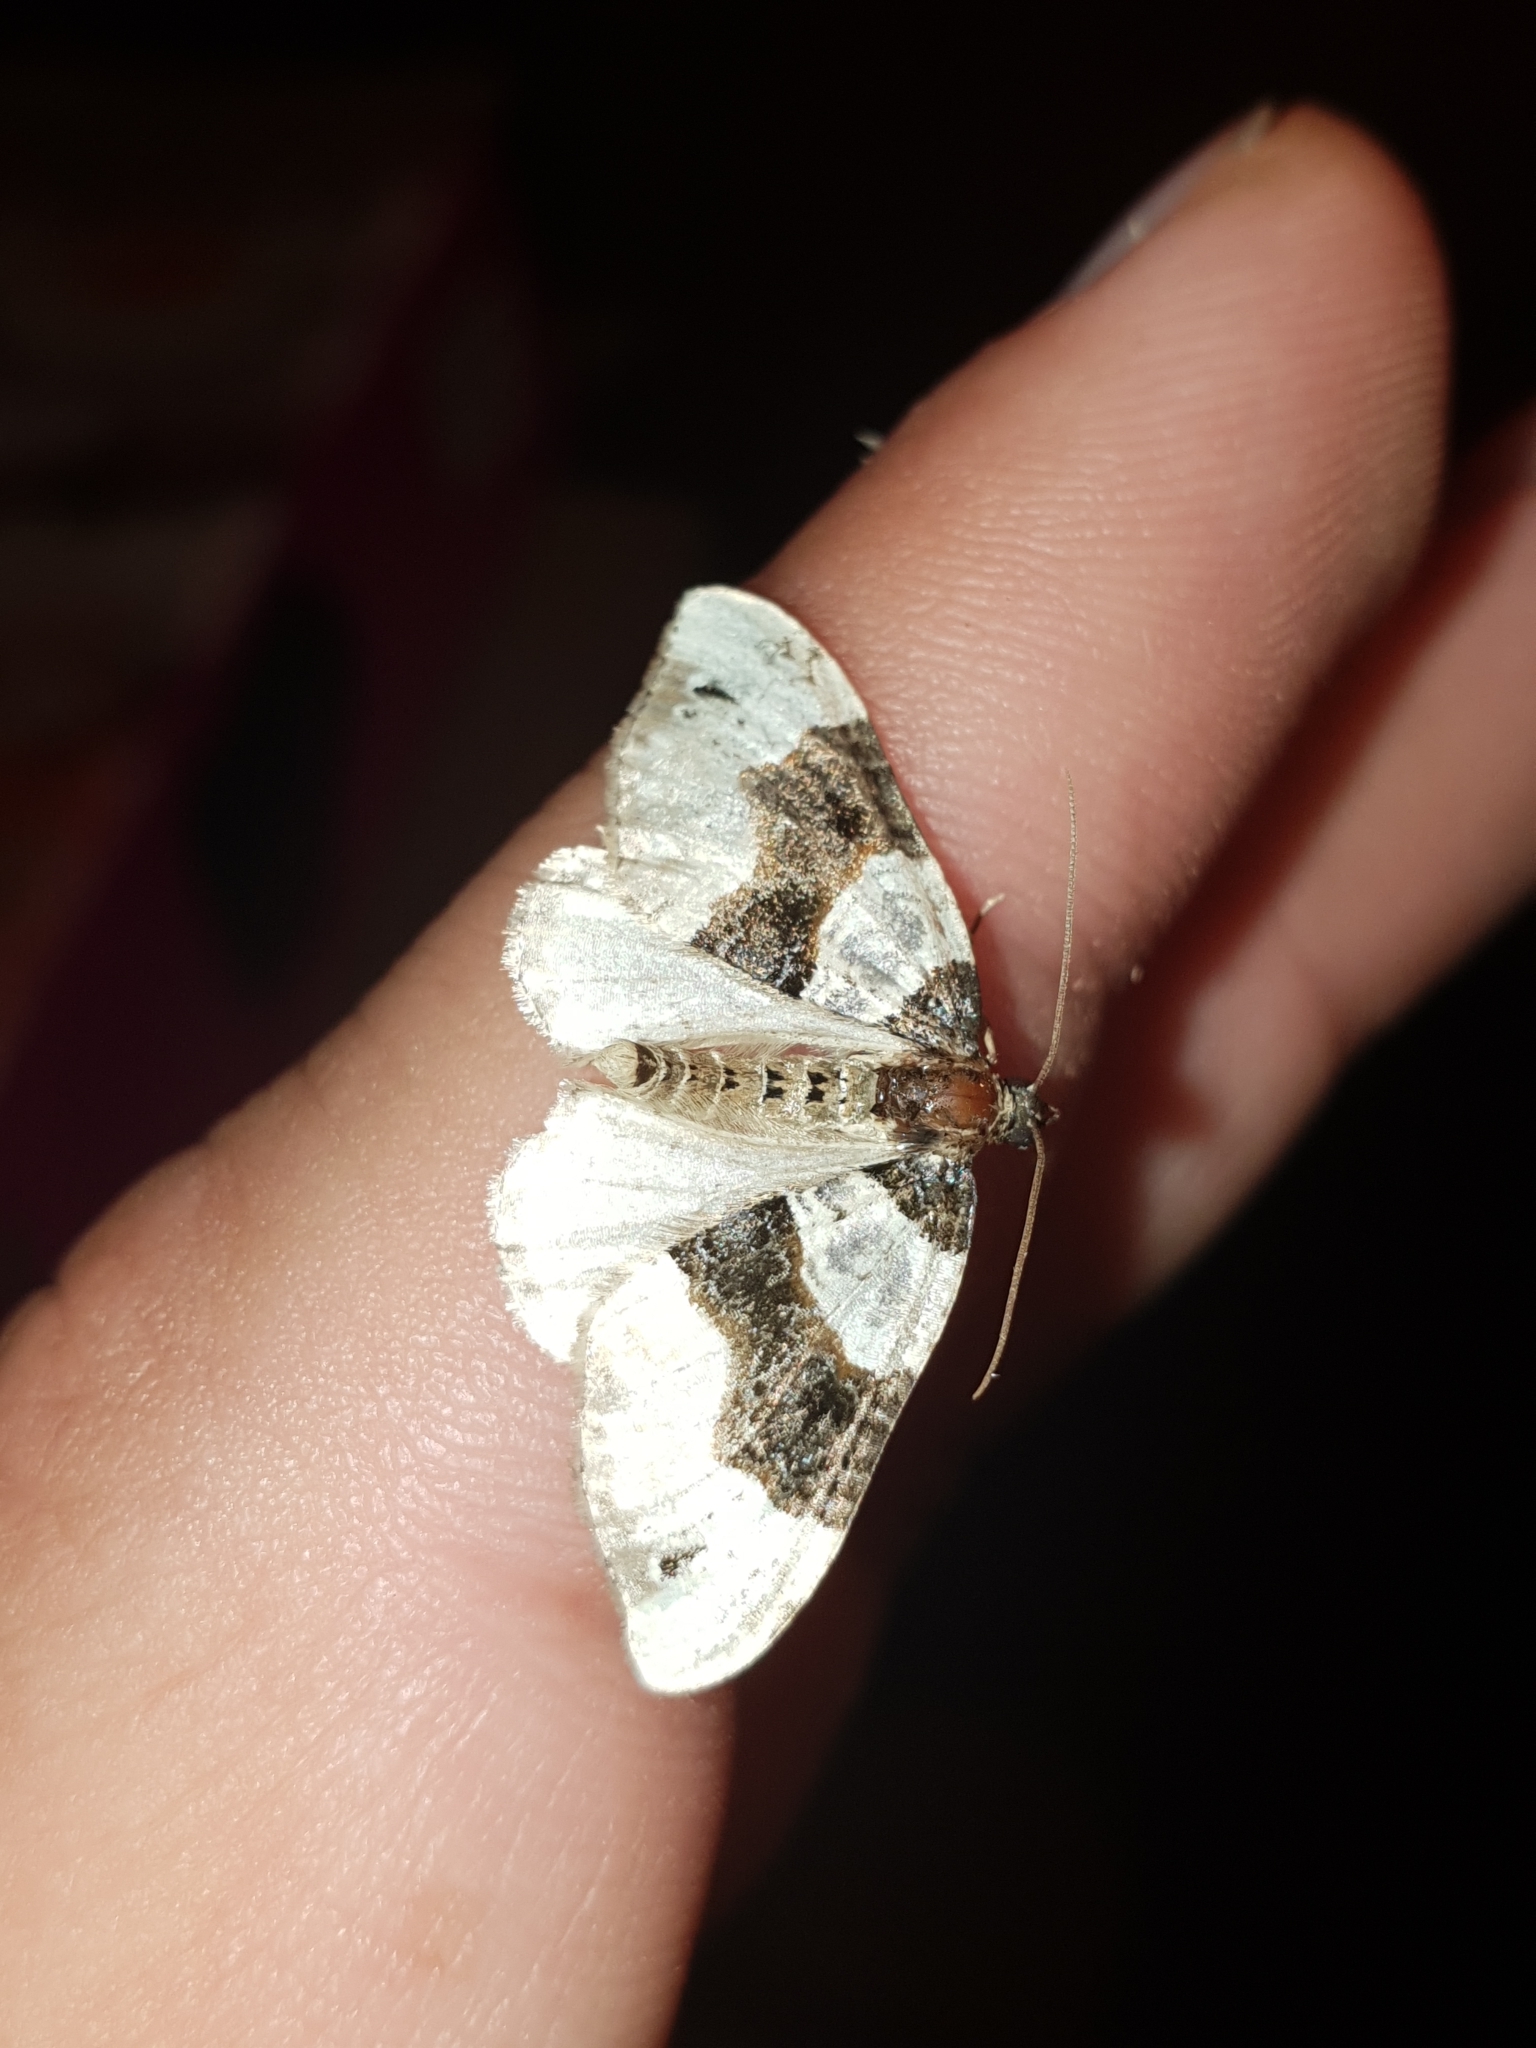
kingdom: Animalia
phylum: Arthropoda
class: Insecta
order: Lepidoptera
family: Geometridae
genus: Cosmorhoe
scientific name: Cosmorhoe ocellata
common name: Purple bar
